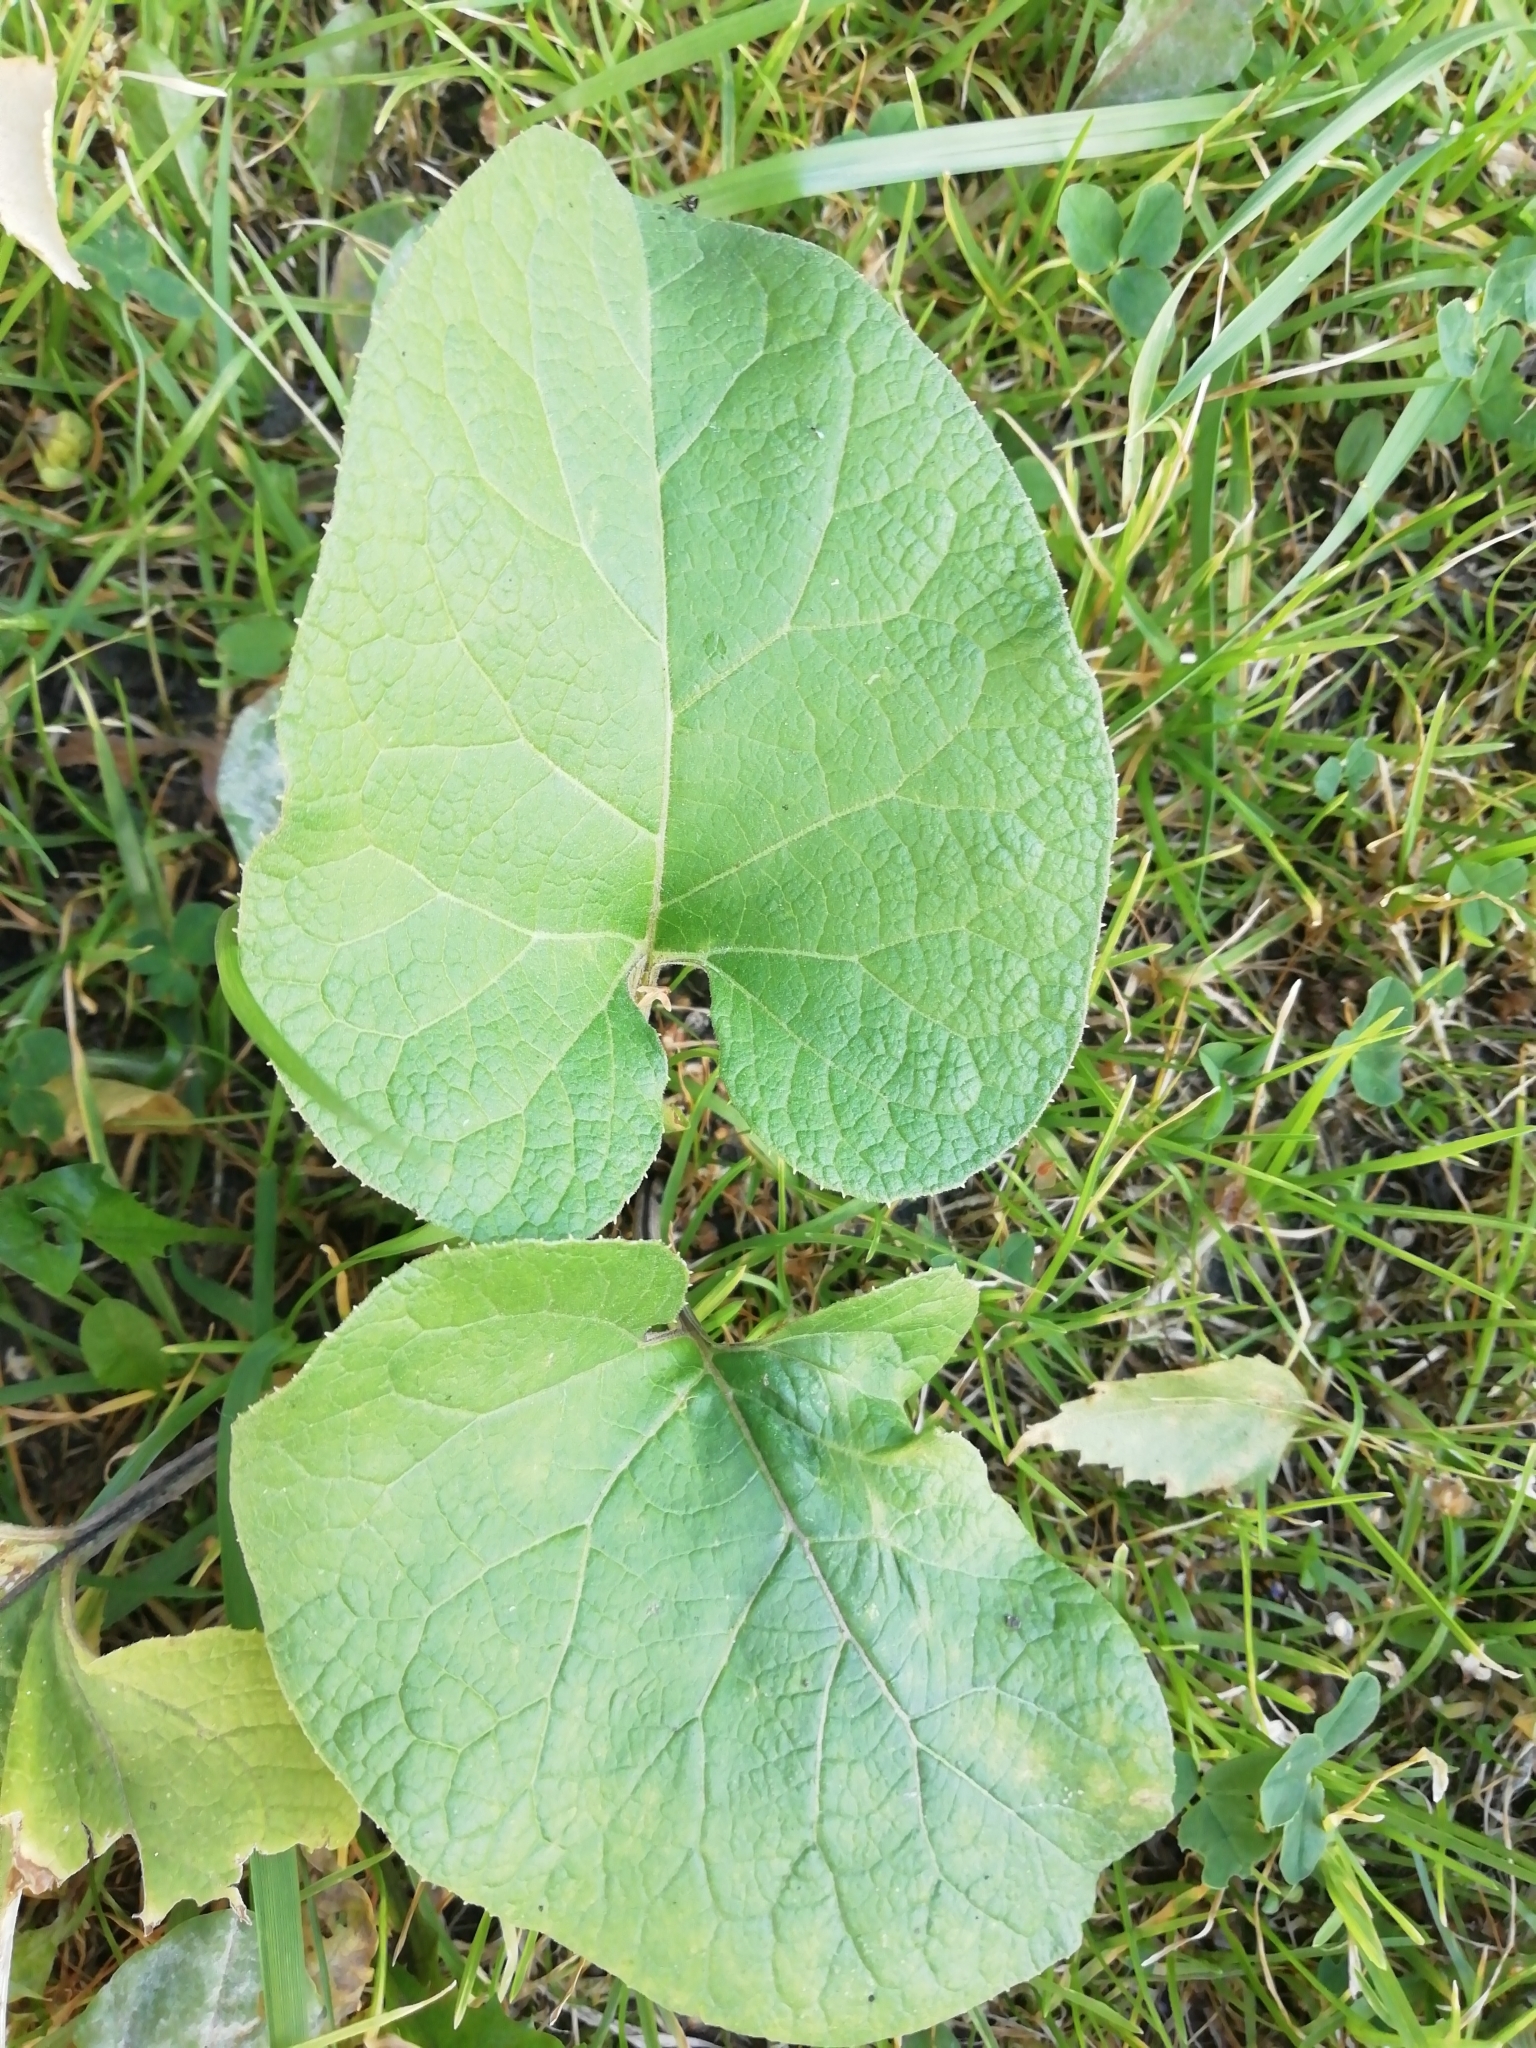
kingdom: Plantae
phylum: Tracheophyta
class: Magnoliopsida
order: Asterales
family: Asteraceae
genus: Arctium
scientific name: Arctium tomentosum
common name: Woolly burdock
